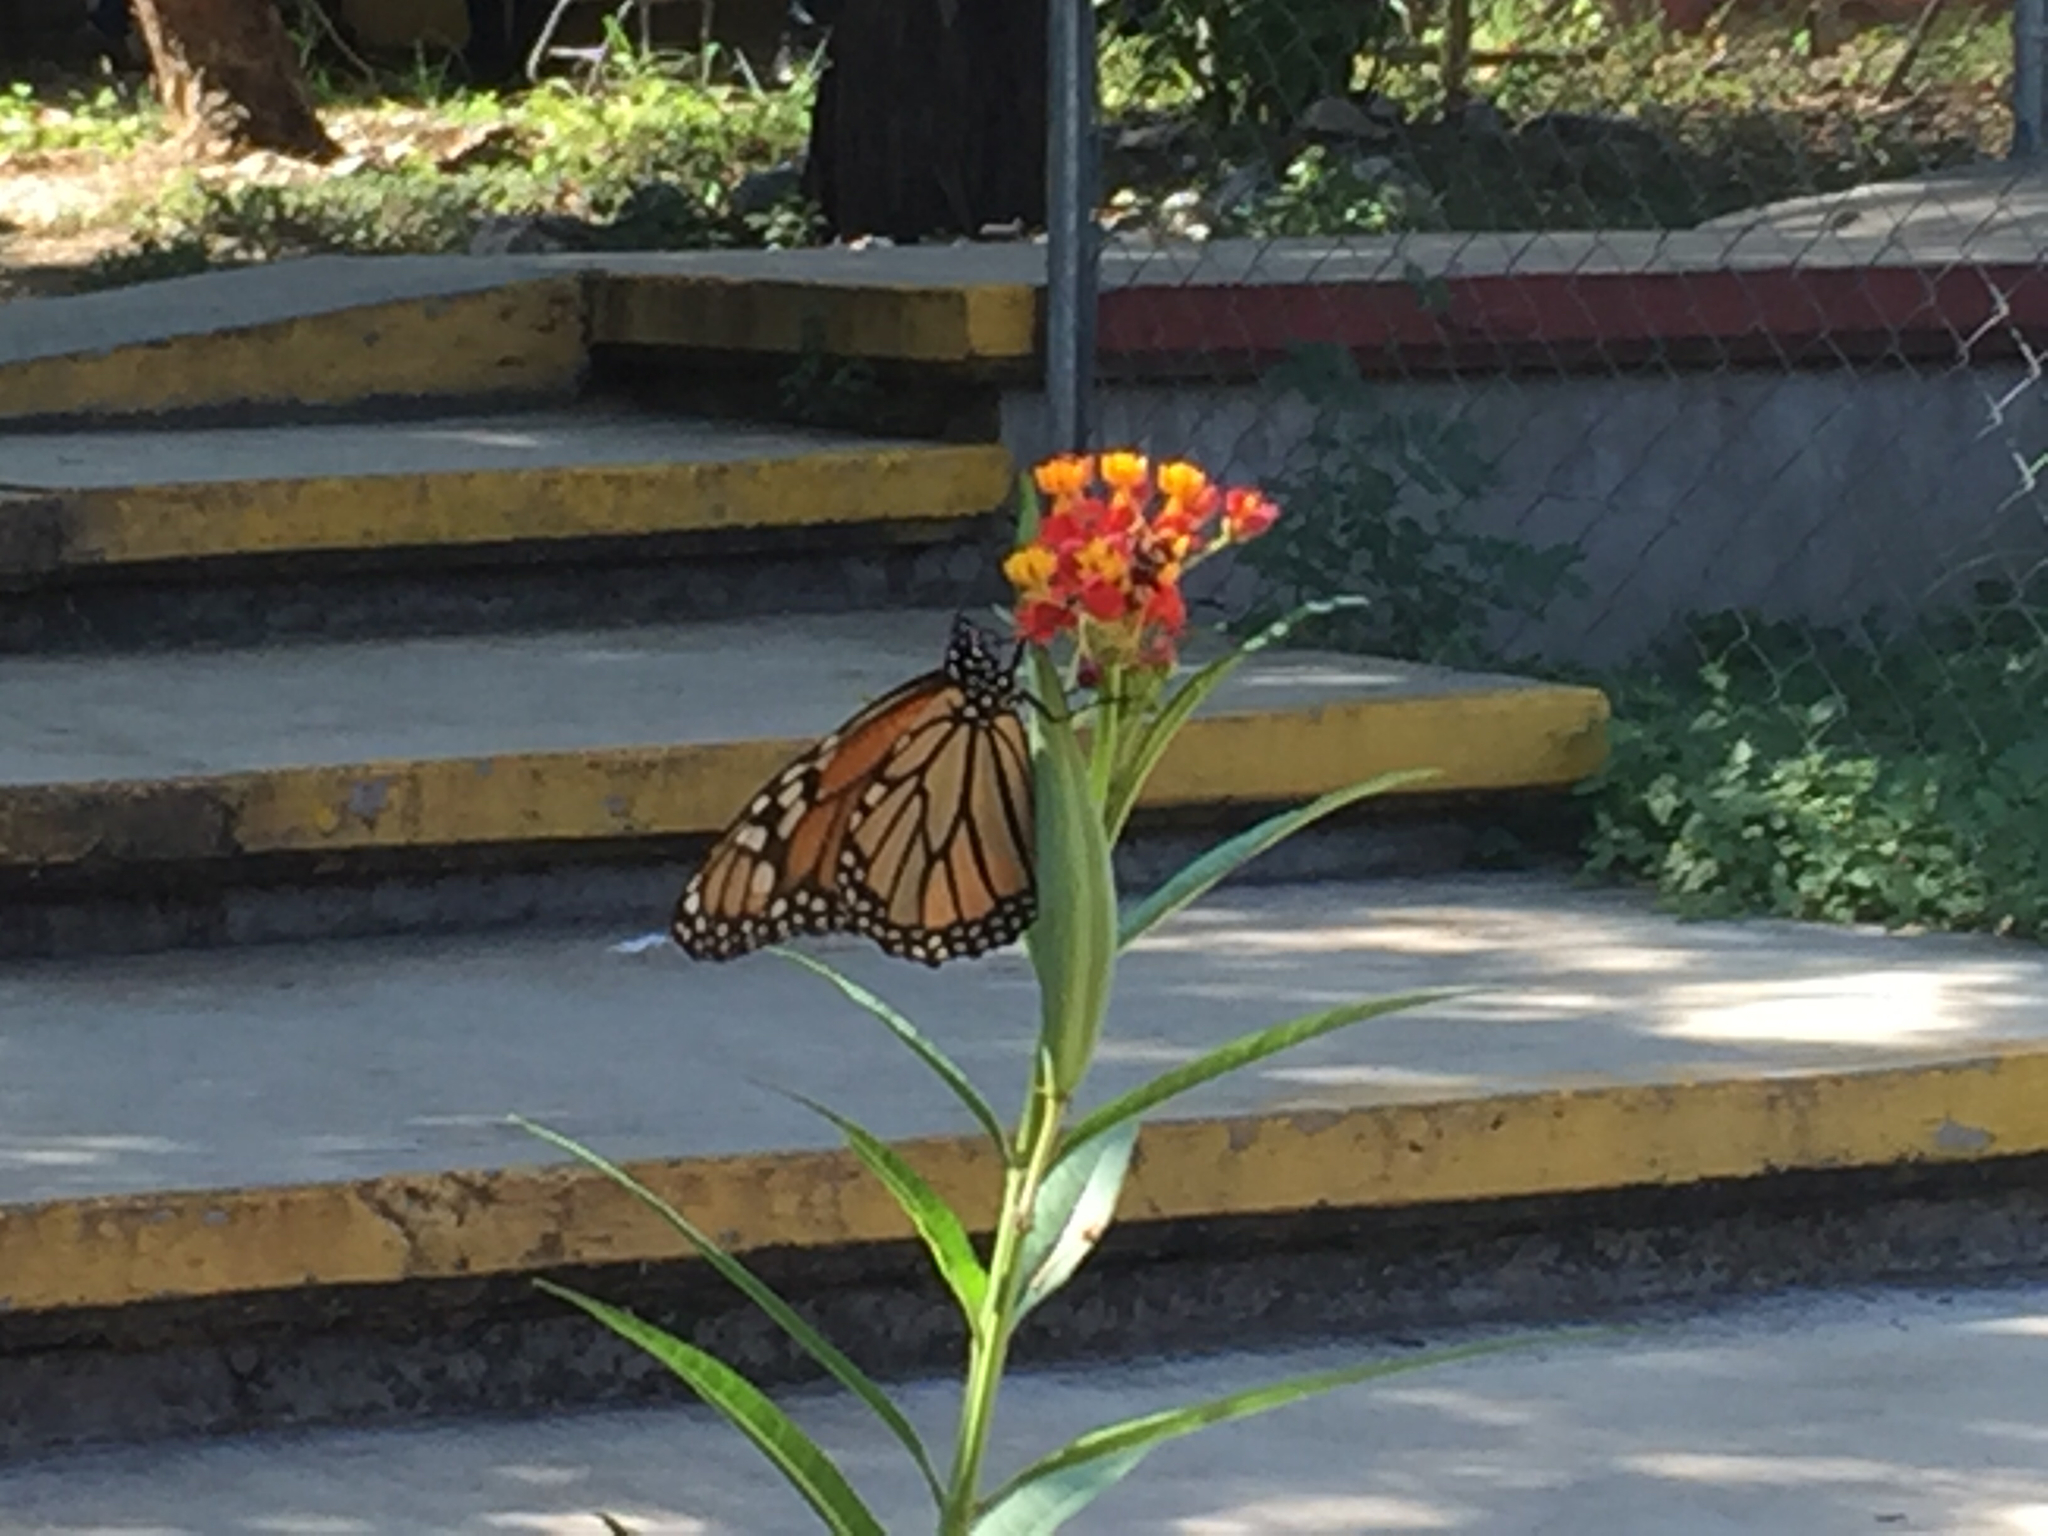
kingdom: Animalia
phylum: Arthropoda
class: Insecta
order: Lepidoptera
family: Nymphalidae
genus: Danaus
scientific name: Danaus plexippus
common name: Monarch
